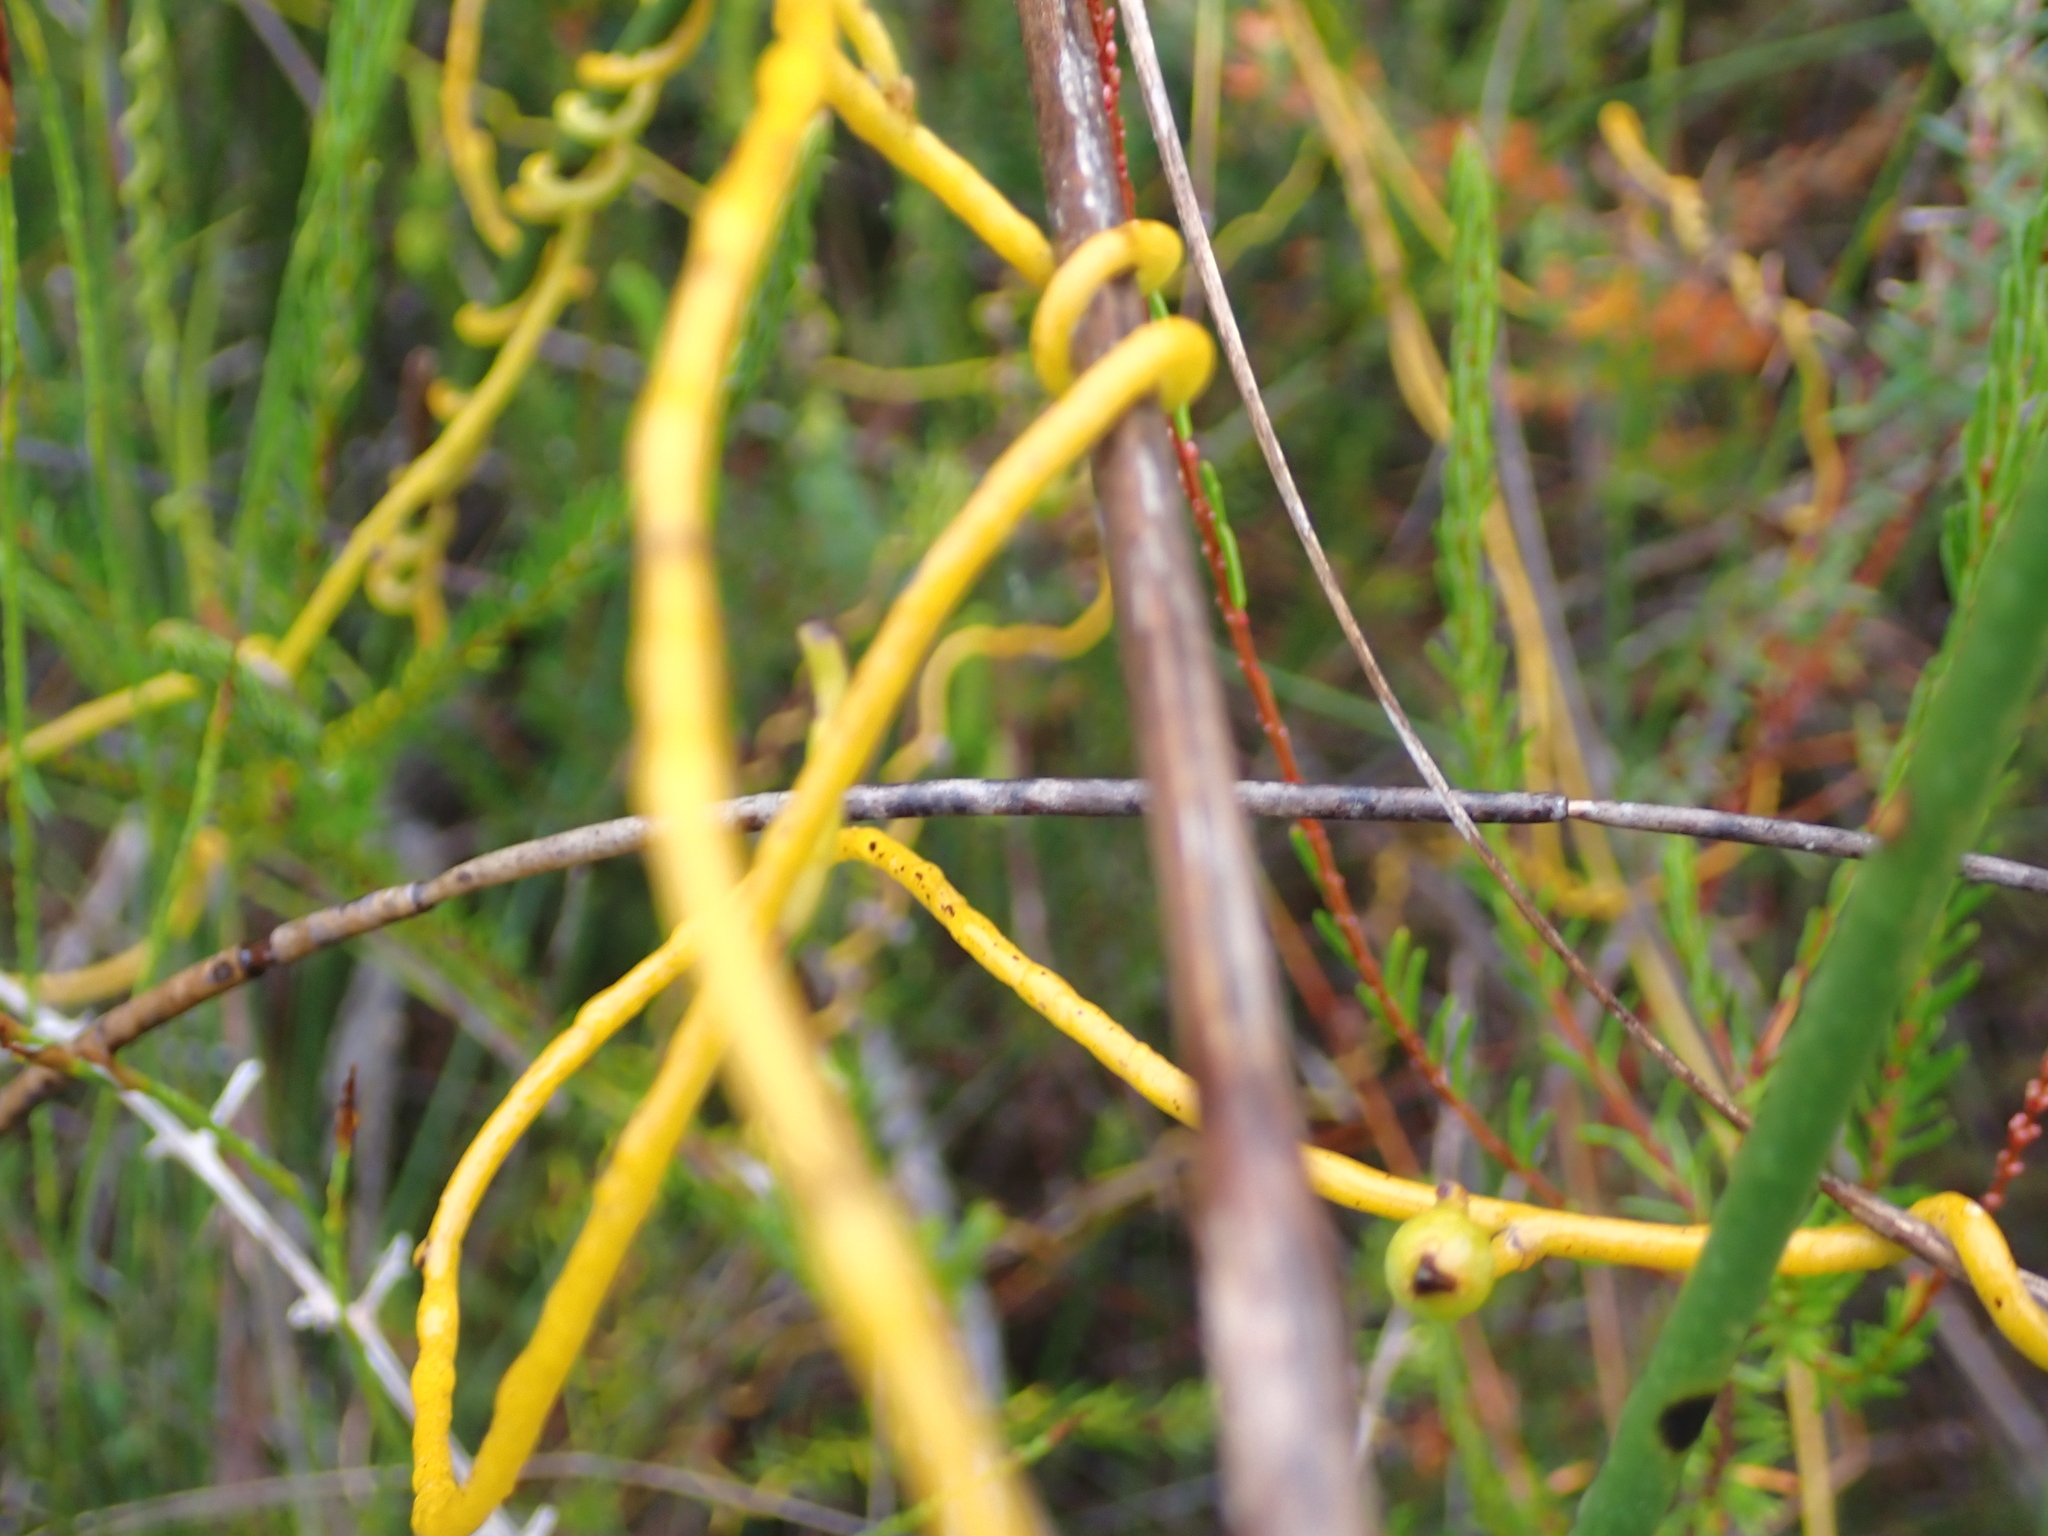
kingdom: Plantae
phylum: Tracheophyta
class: Magnoliopsida
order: Laurales
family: Lauraceae
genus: Cassytha
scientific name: Cassytha ciliolata
